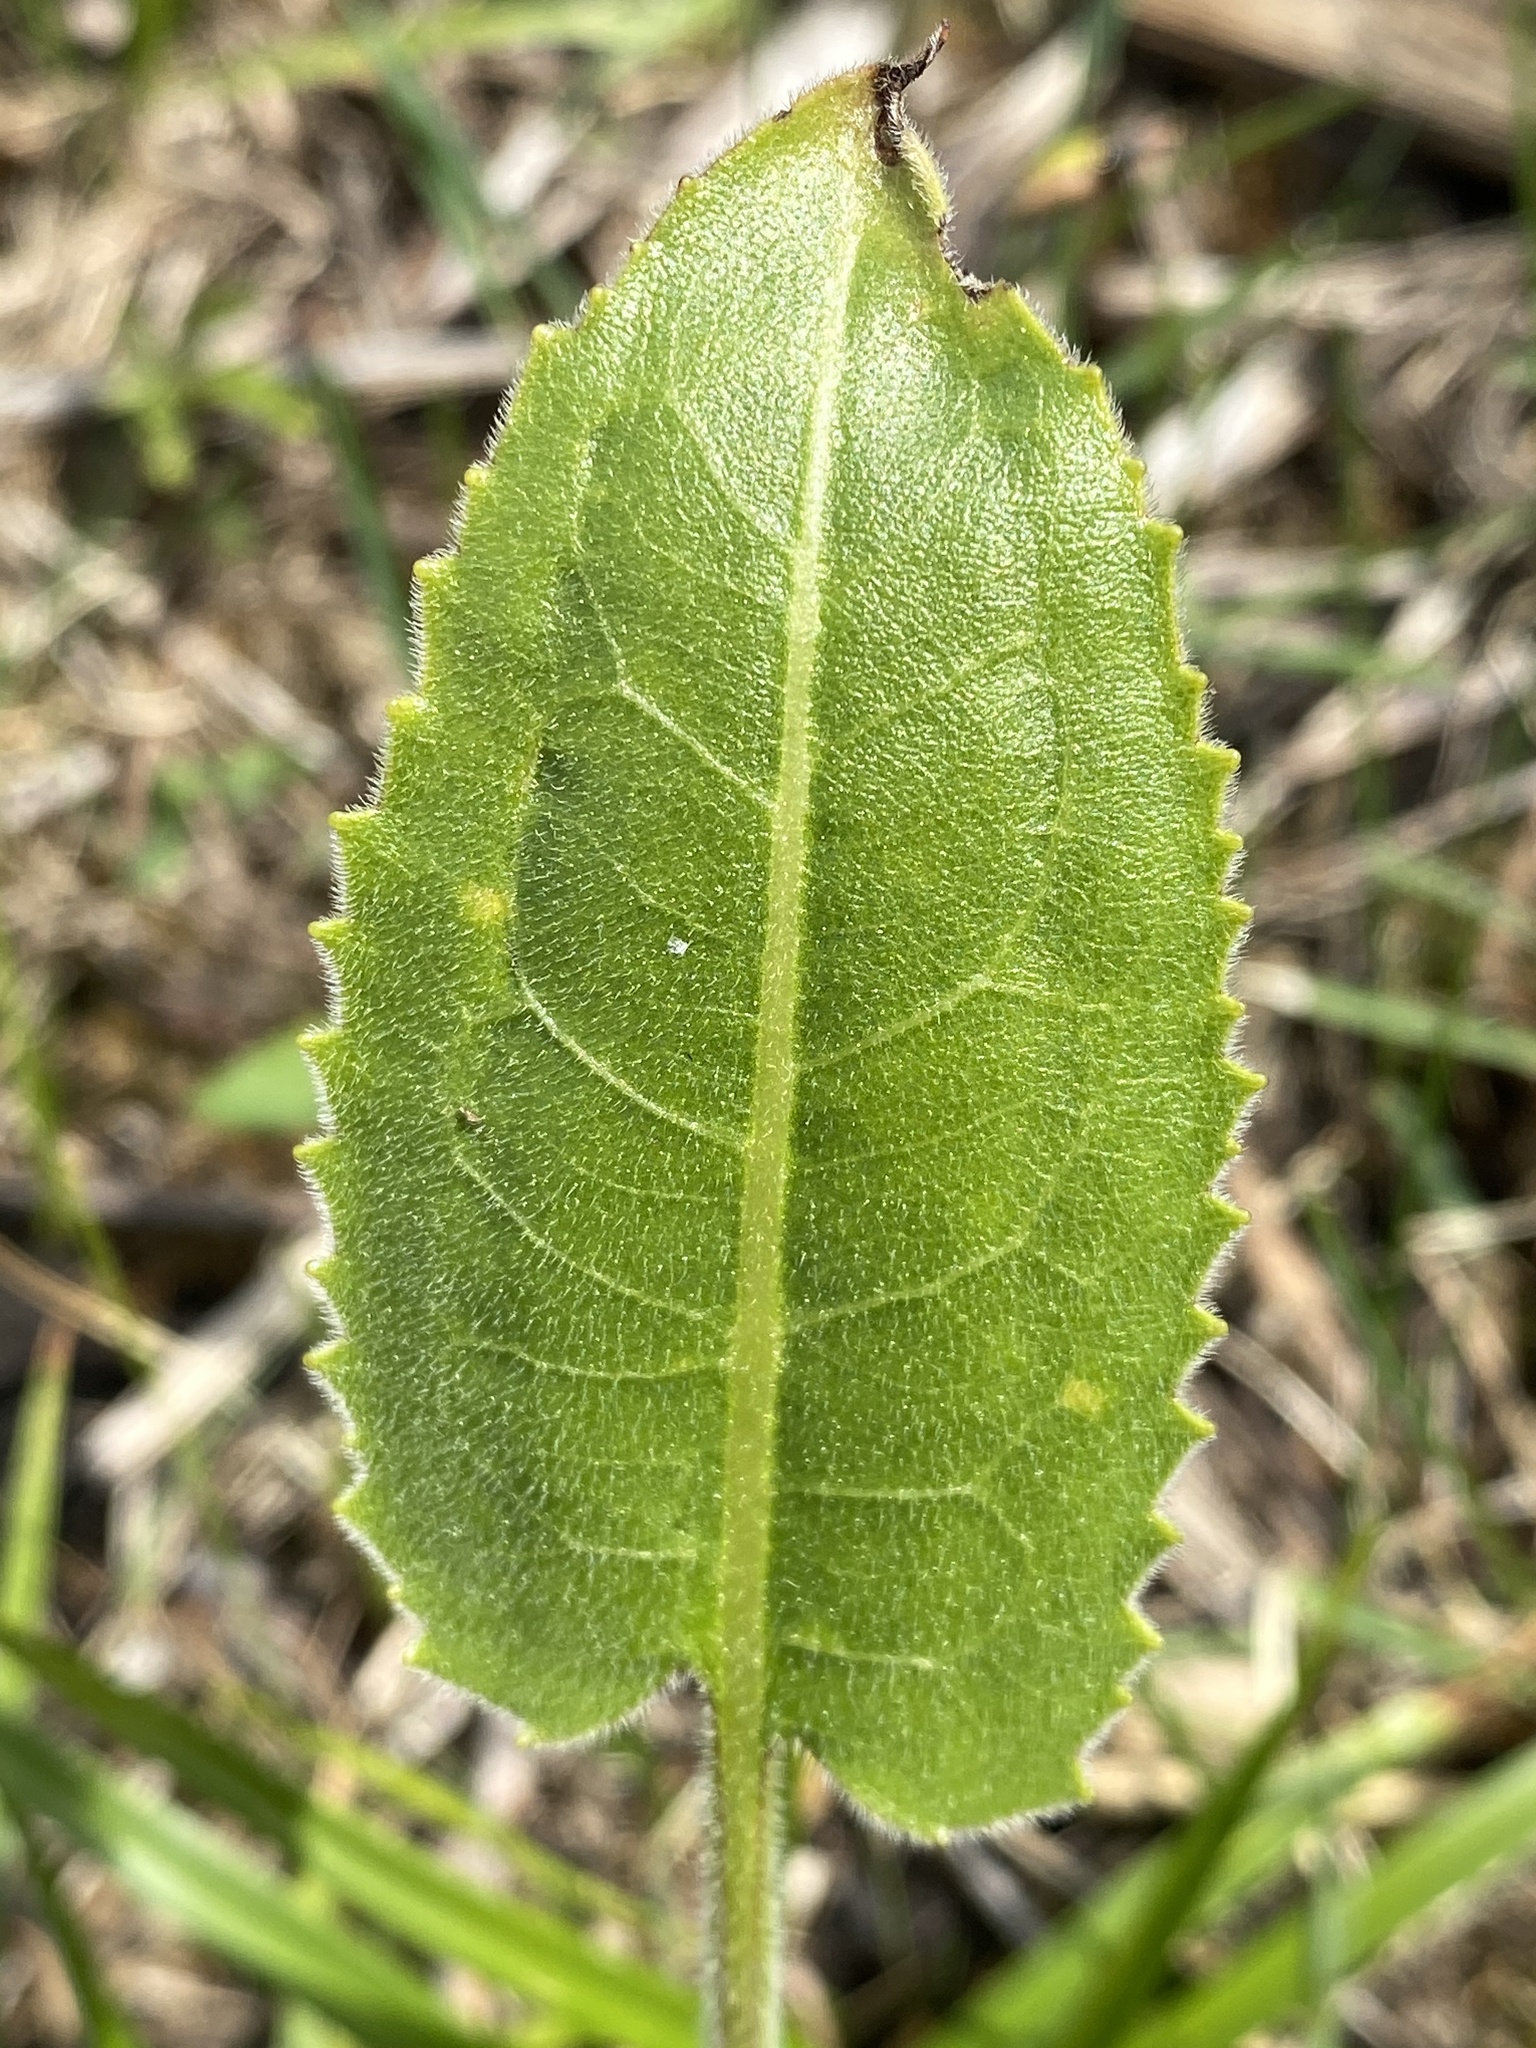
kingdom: Plantae
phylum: Tracheophyta
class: Magnoliopsida
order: Asterales
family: Asteraceae
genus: Silphium
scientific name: Silphium terebinthinaceum
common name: Basal-leaf rosinweed
